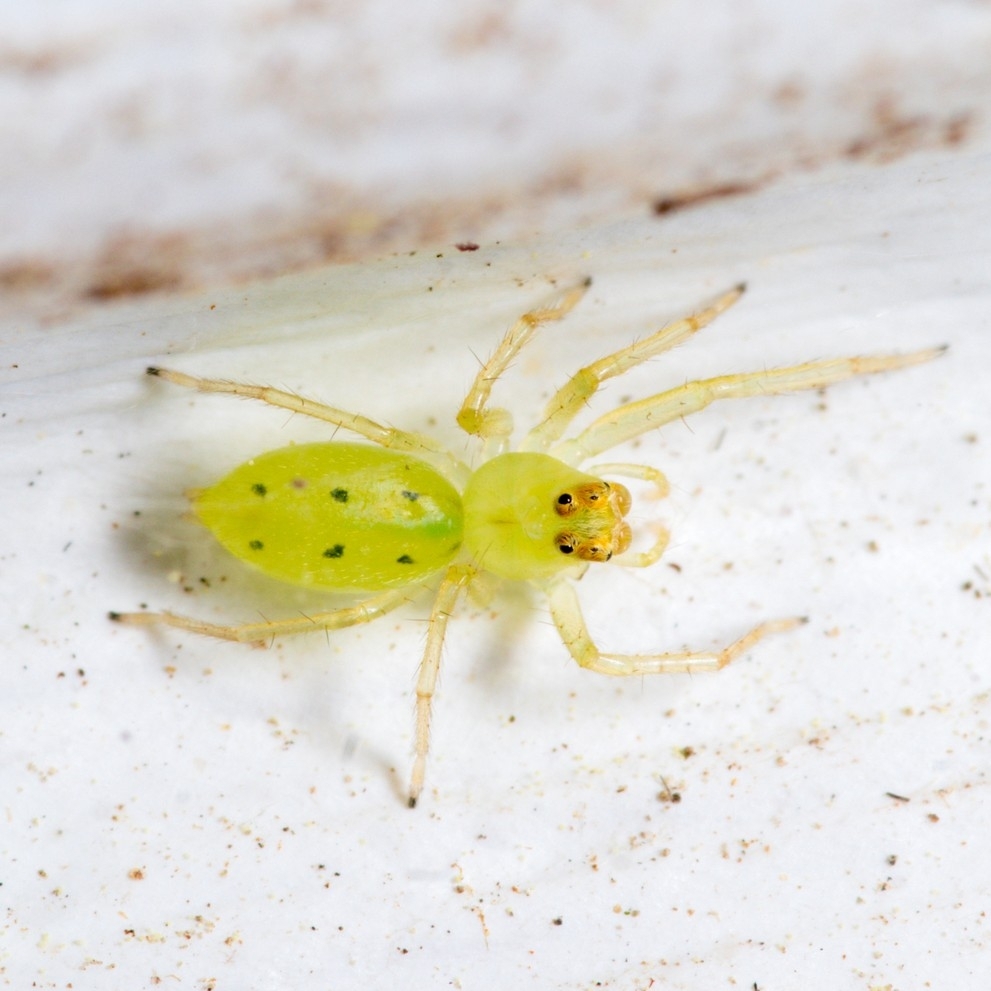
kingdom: Animalia
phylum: Arthropoda
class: Arachnida
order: Araneae
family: Salticidae
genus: Lyssomanes
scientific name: Lyssomanes viridis
